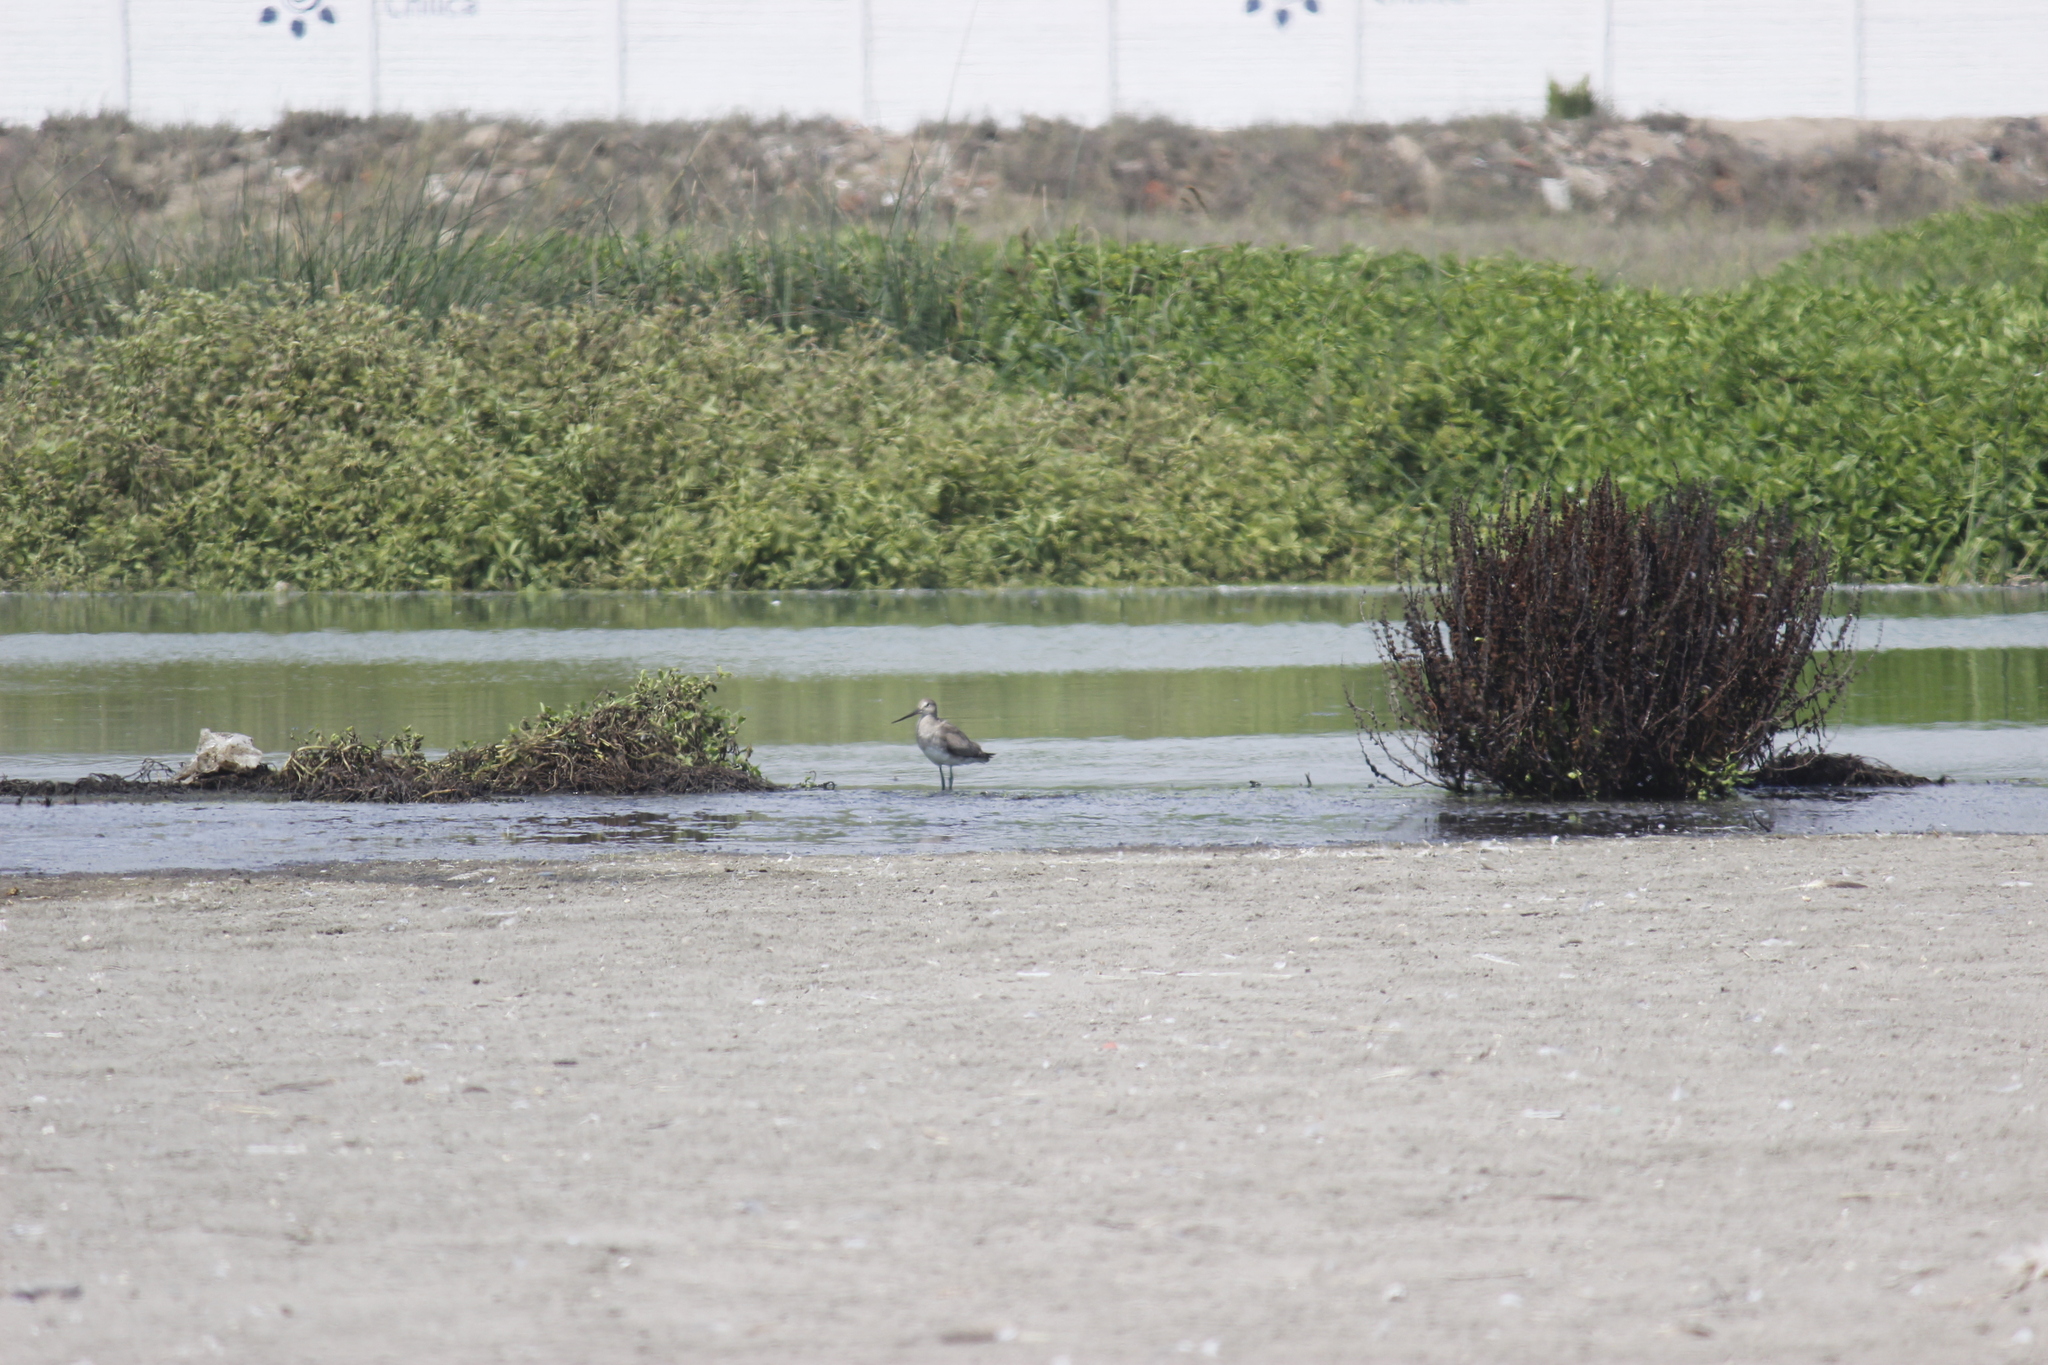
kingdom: Animalia
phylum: Chordata
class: Aves
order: Charadriiformes
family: Scolopacidae
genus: Limosa
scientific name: Limosa haemastica
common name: Hudsonian godwit
